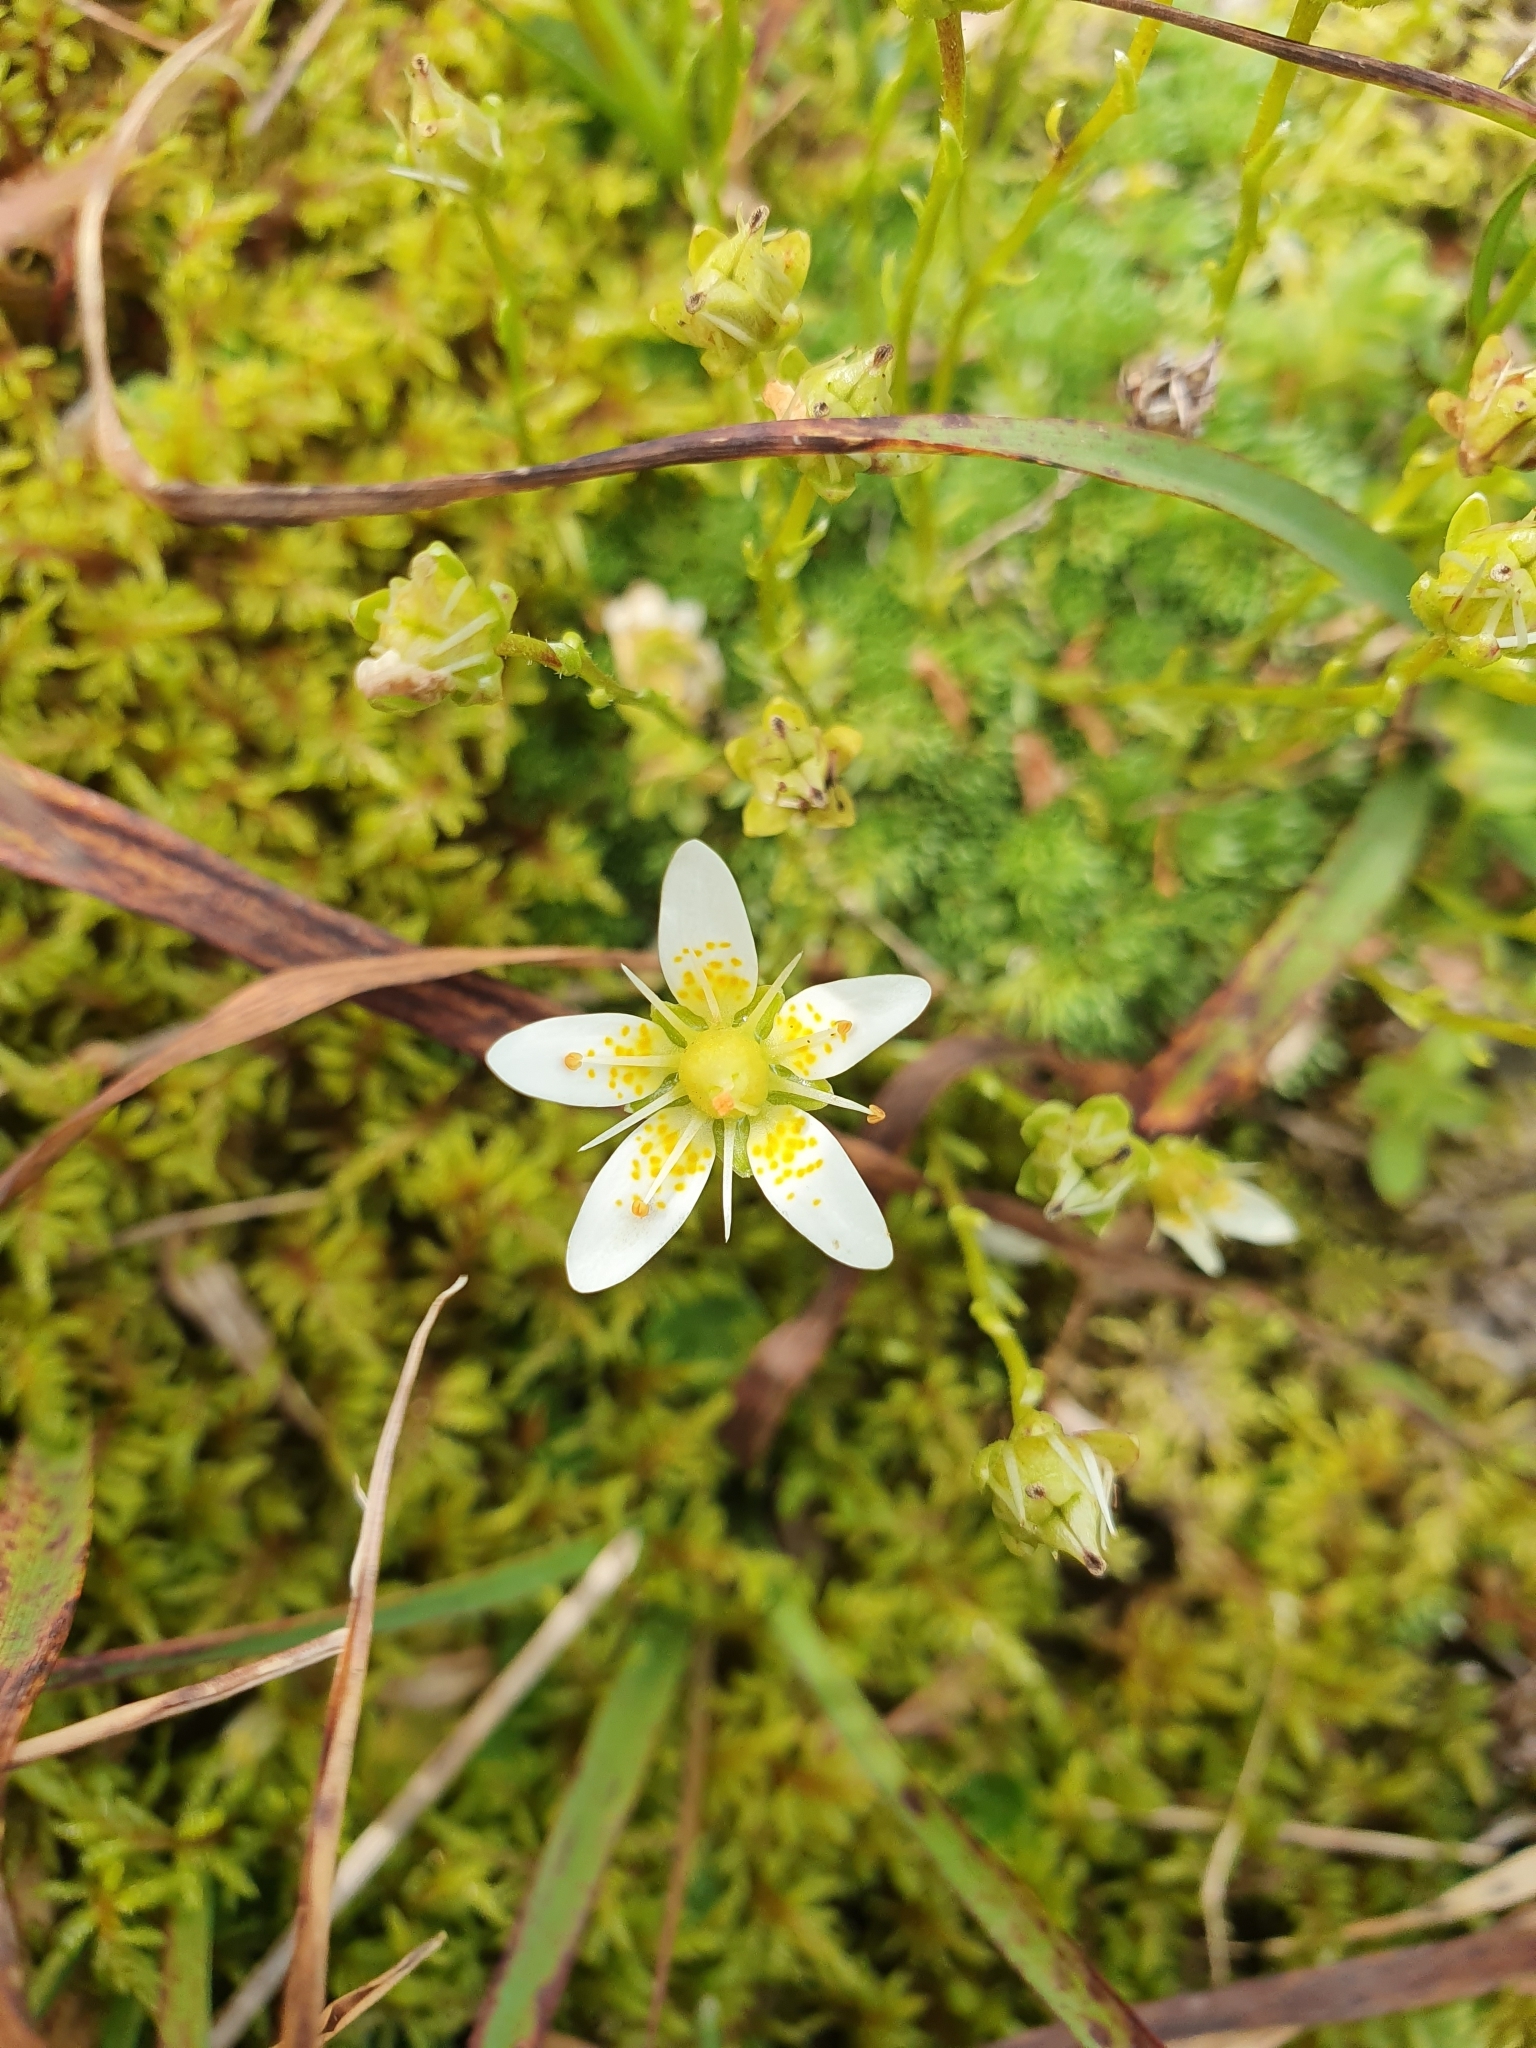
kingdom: Plantae
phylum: Tracheophyta
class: Magnoliopsida
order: Saxifragales
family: Saxifragaceae
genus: Saxifraga
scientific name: Saxifraga bryoides
